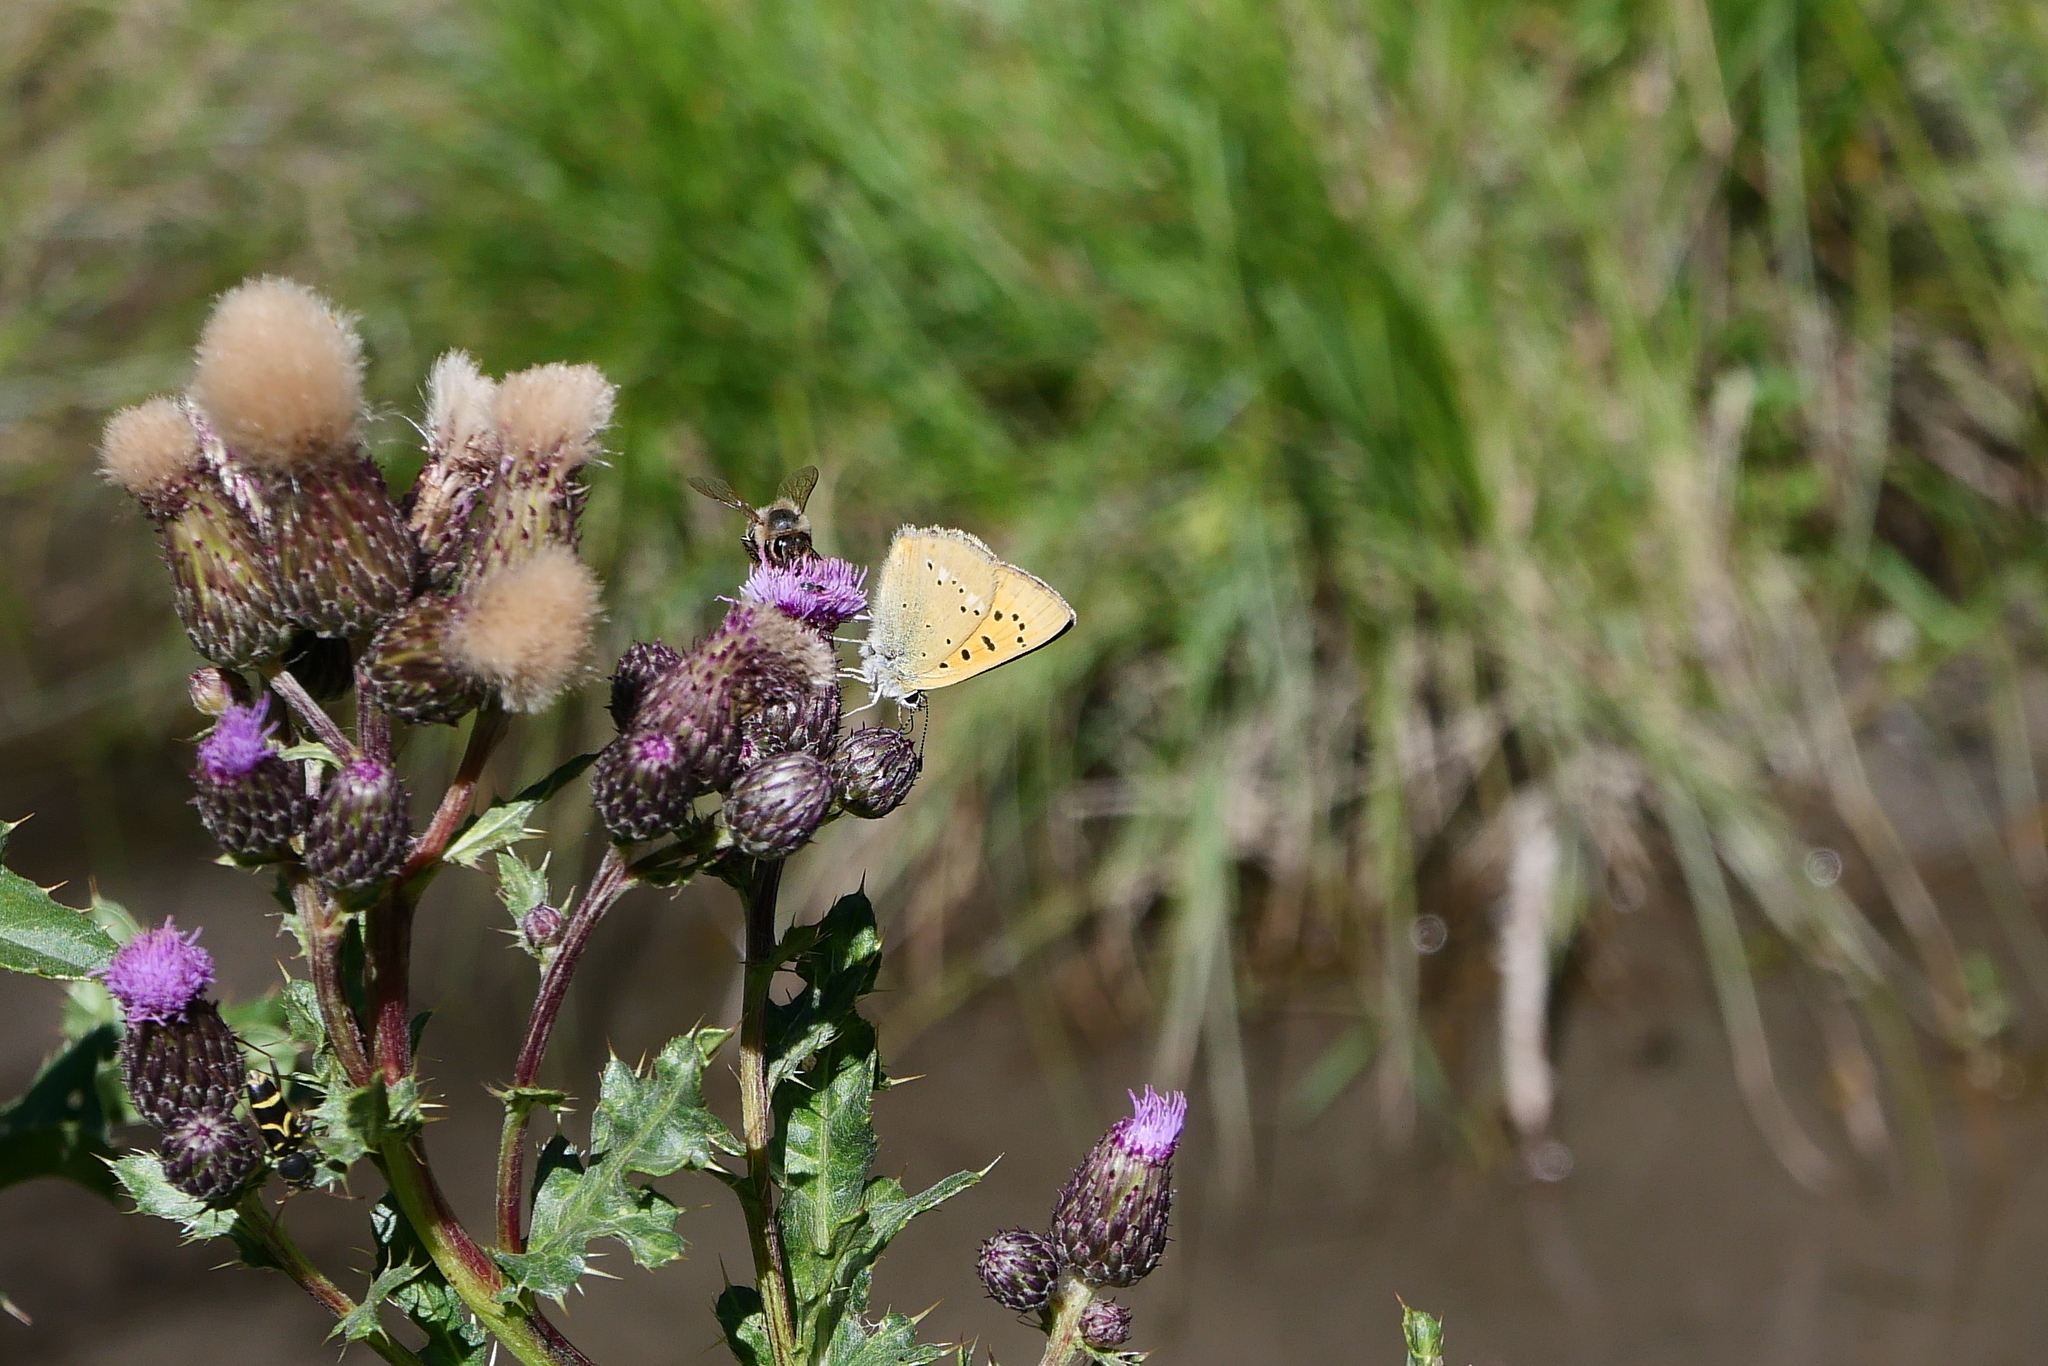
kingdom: Animalia
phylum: Arthropoda
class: Insecta
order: Lepidoptera
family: Lycaenidae
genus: Lycaena
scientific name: Lycaena virgaureae
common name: Scarce copper
